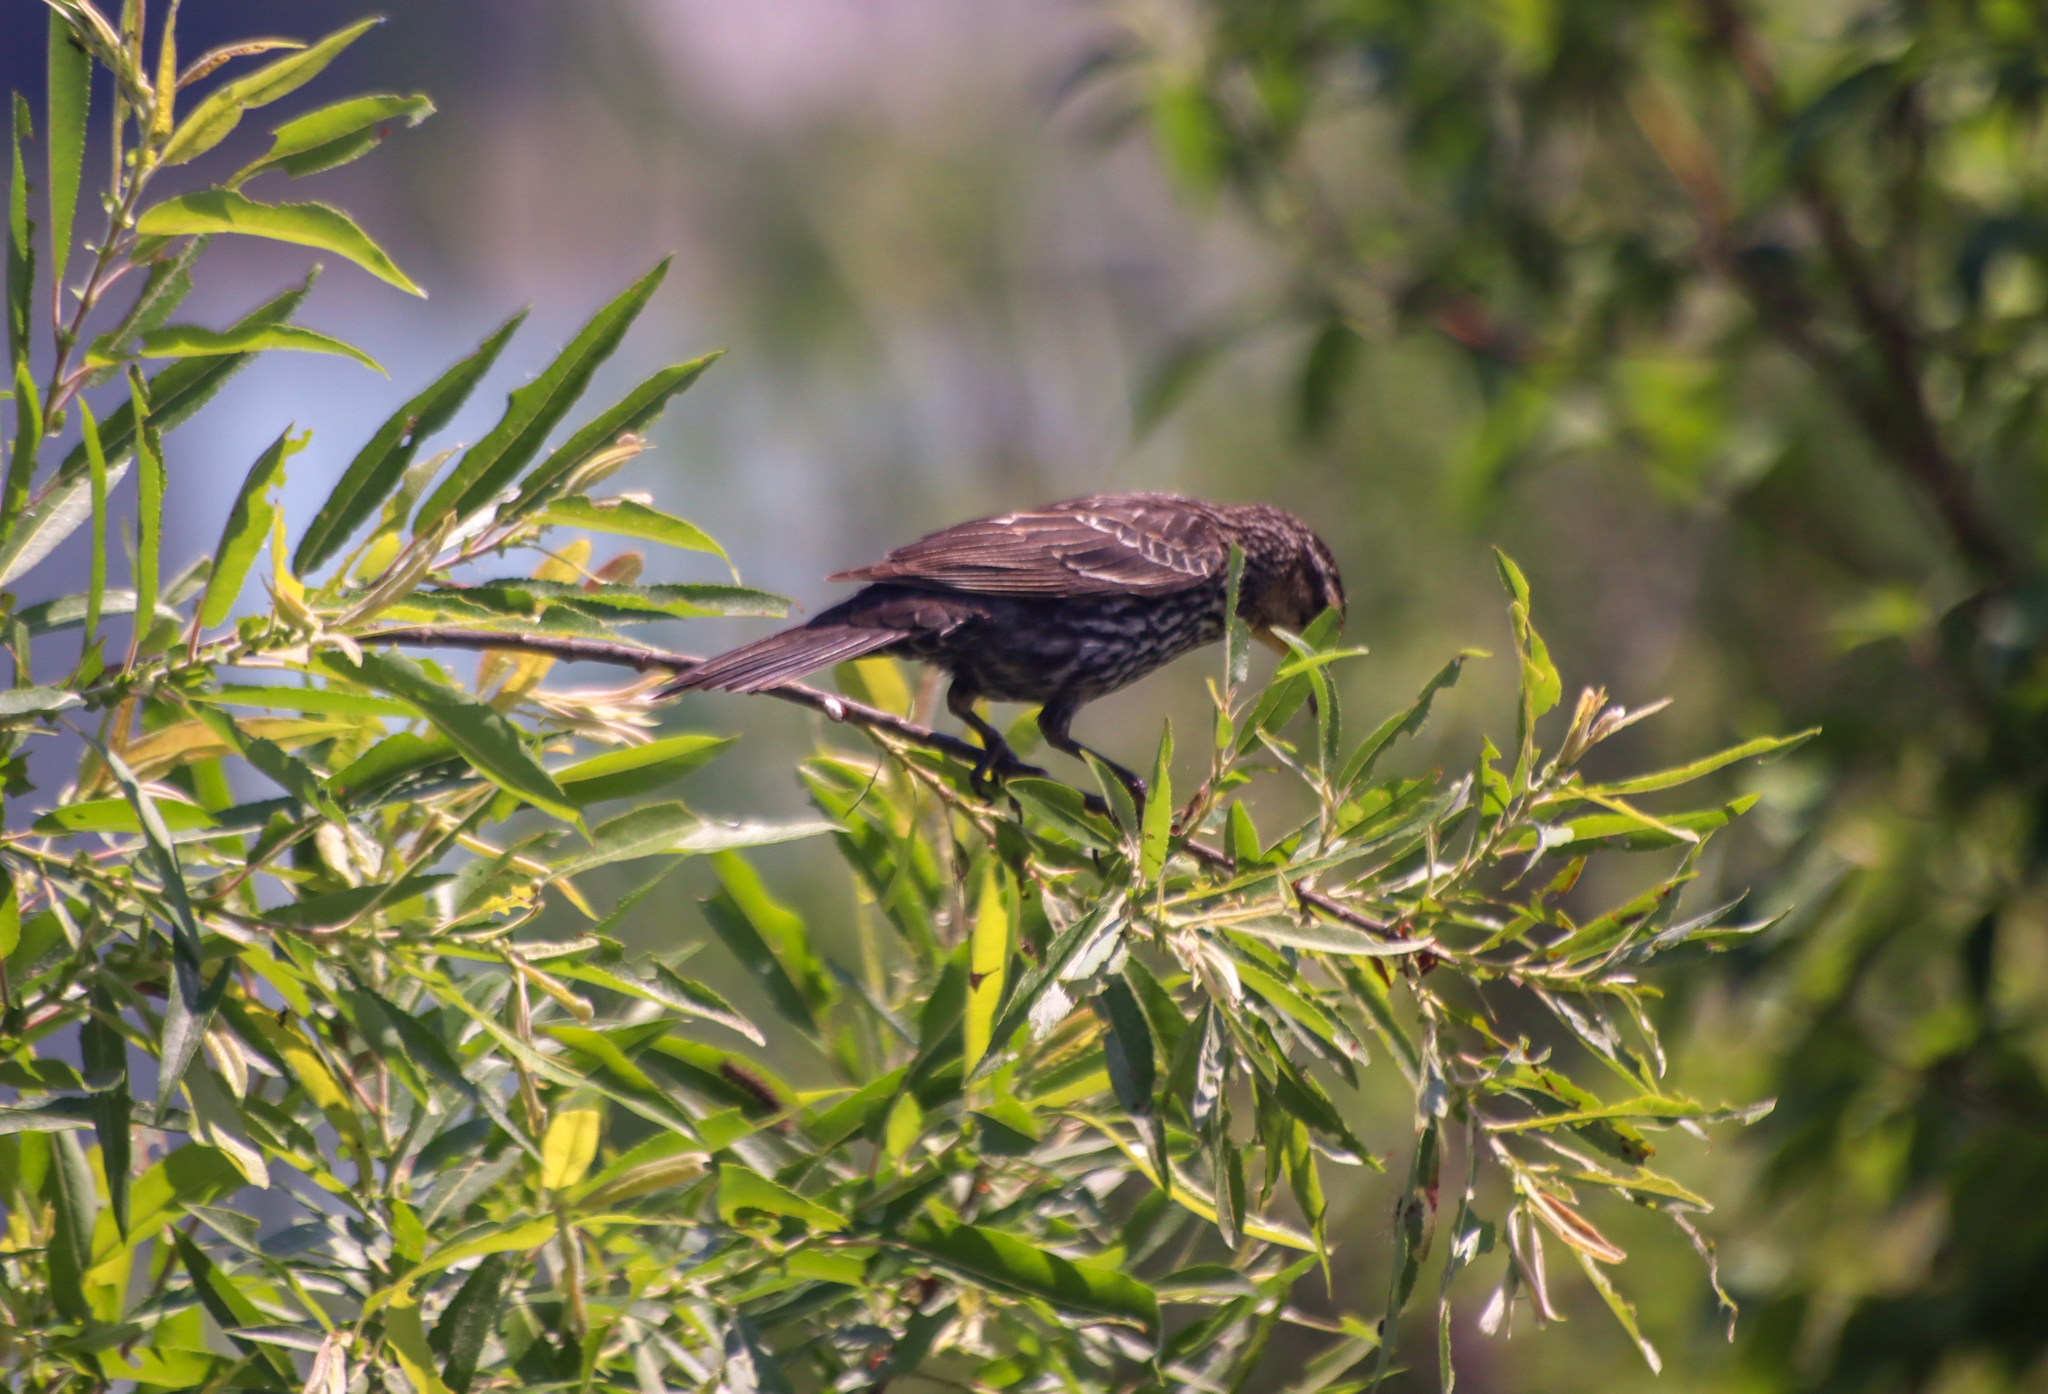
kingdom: Animalia
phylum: Chordata
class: Aves
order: Passeriformes
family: Icteridae
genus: Agelaius
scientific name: Agelaius phoeniceus
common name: Red-winged blackbird
